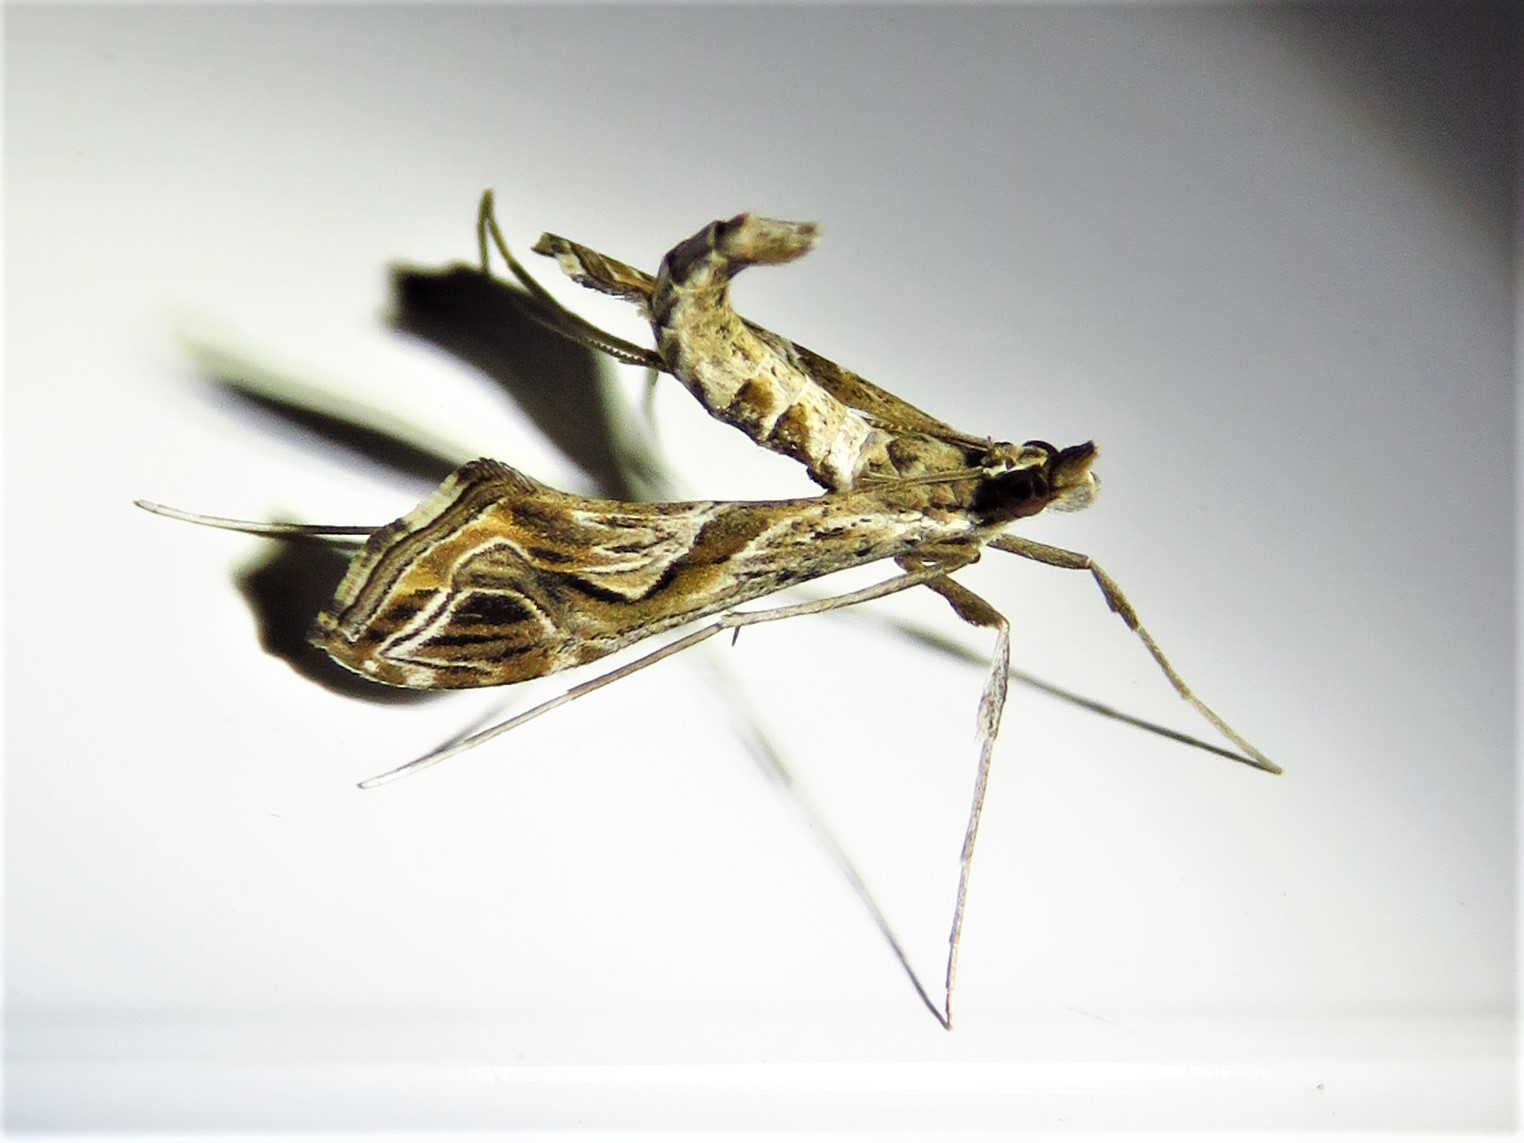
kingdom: Animalia
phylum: Arthropoda
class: Insecta
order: Lepidoptera
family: Crambidae
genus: Lineodes
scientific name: Lineodes integra
